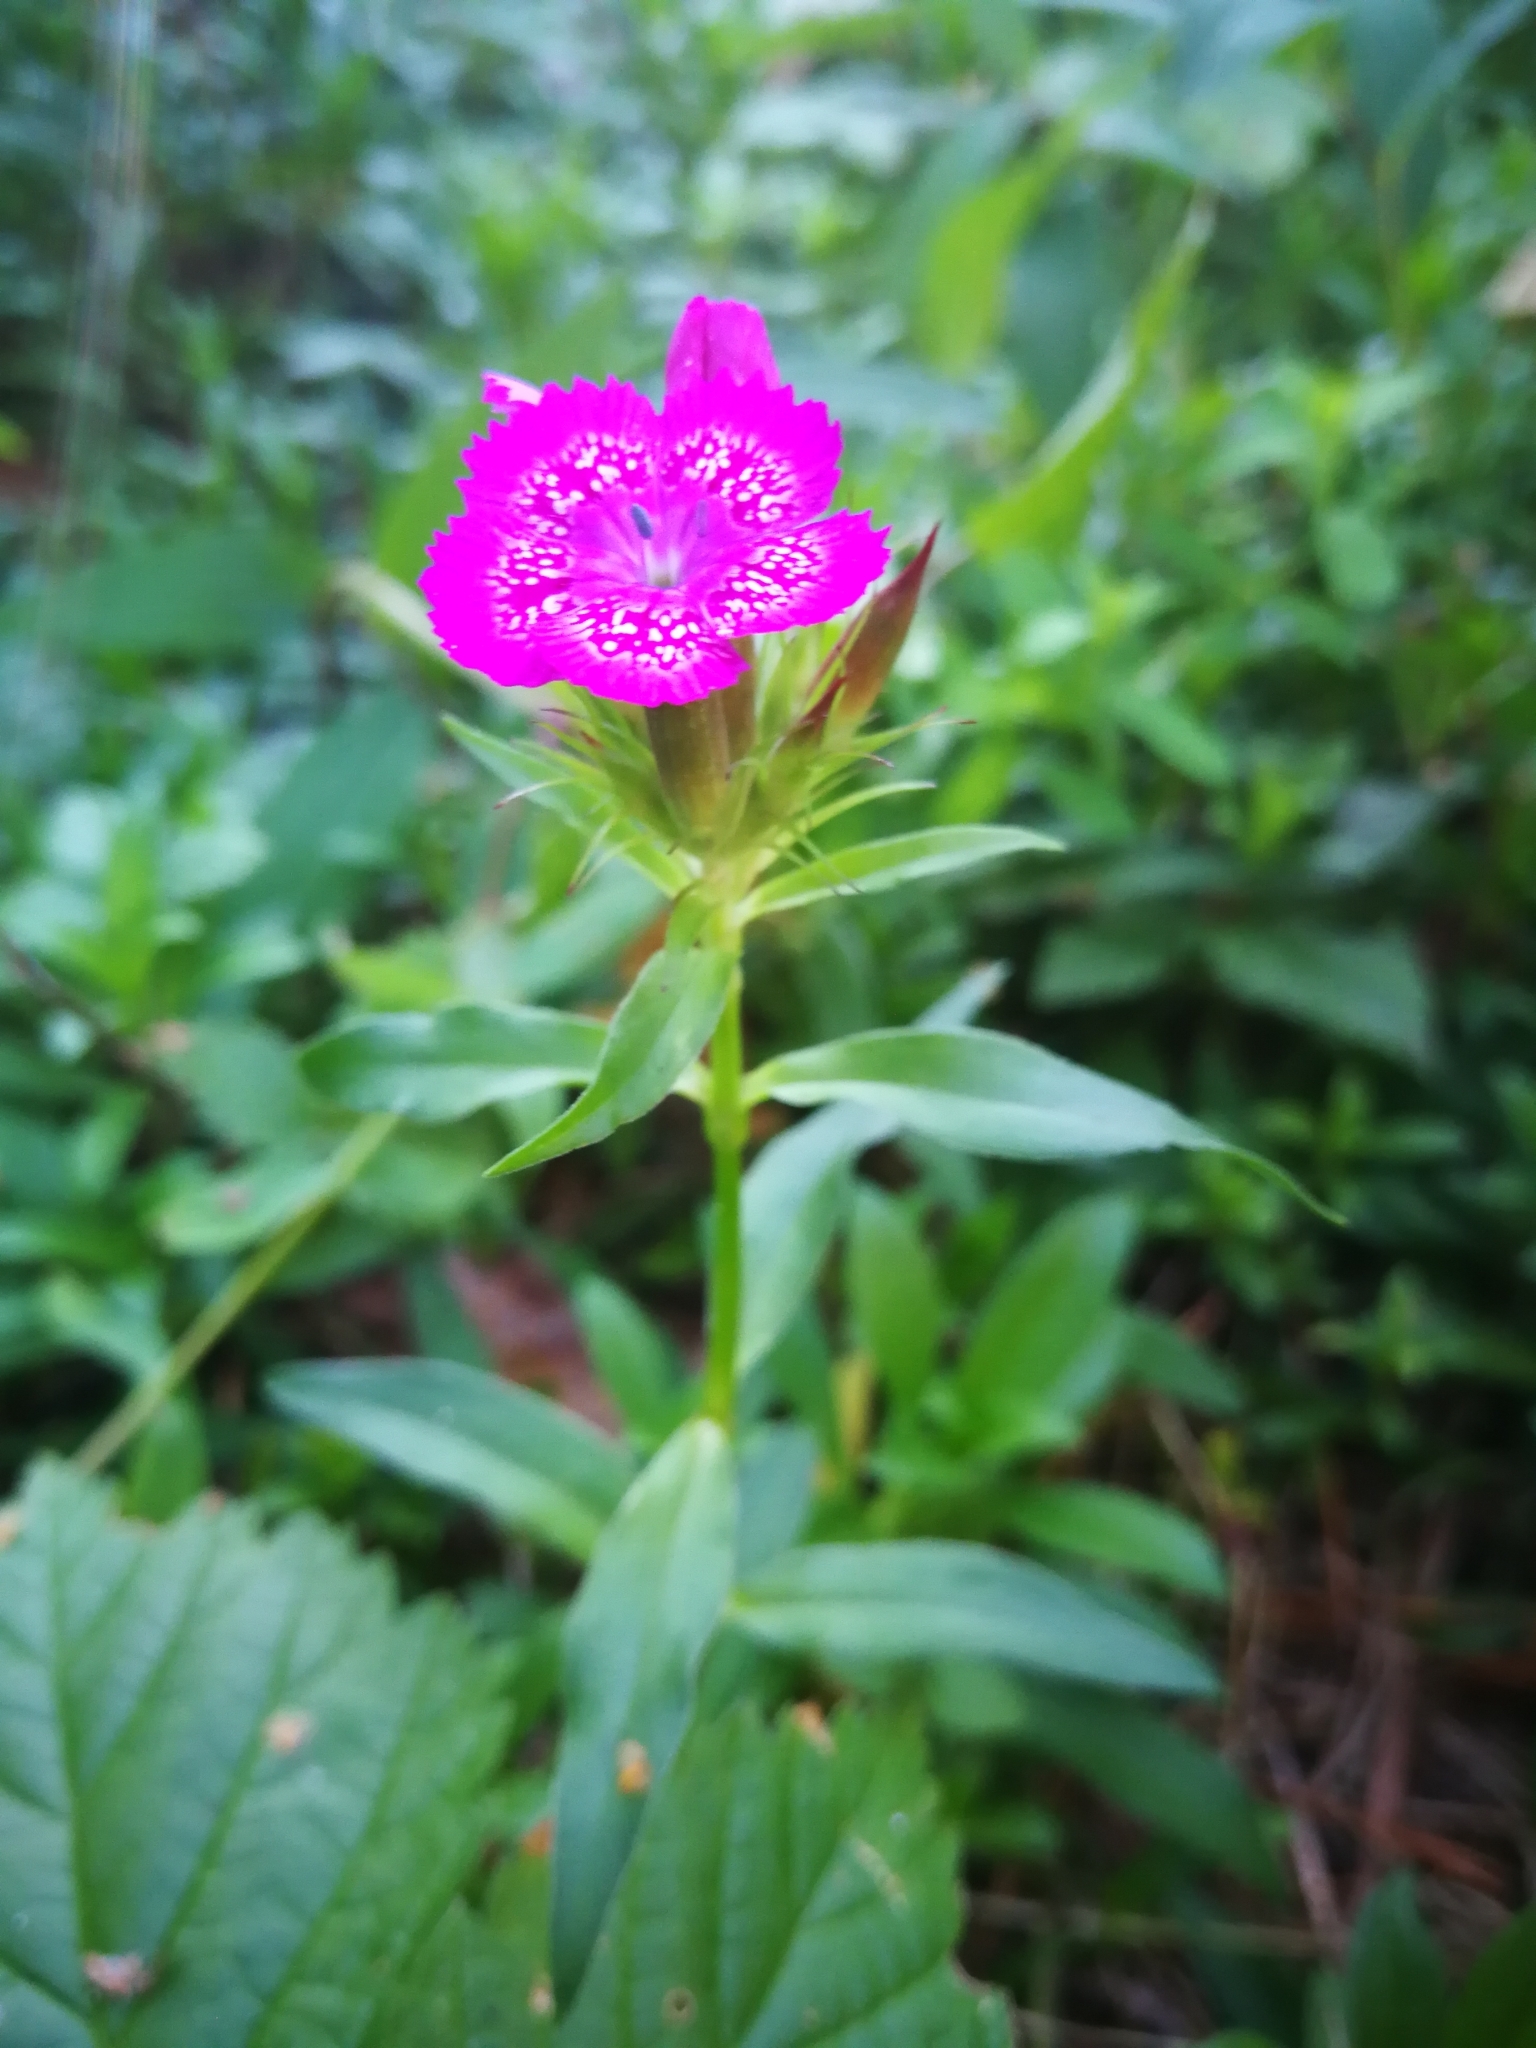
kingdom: Plantae
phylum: Tracheophyta
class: Magnoliopsida
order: Caryophyllales
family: Caryophyllaceae
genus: Dianthus
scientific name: Dianthus barbatus
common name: Sweet-william
